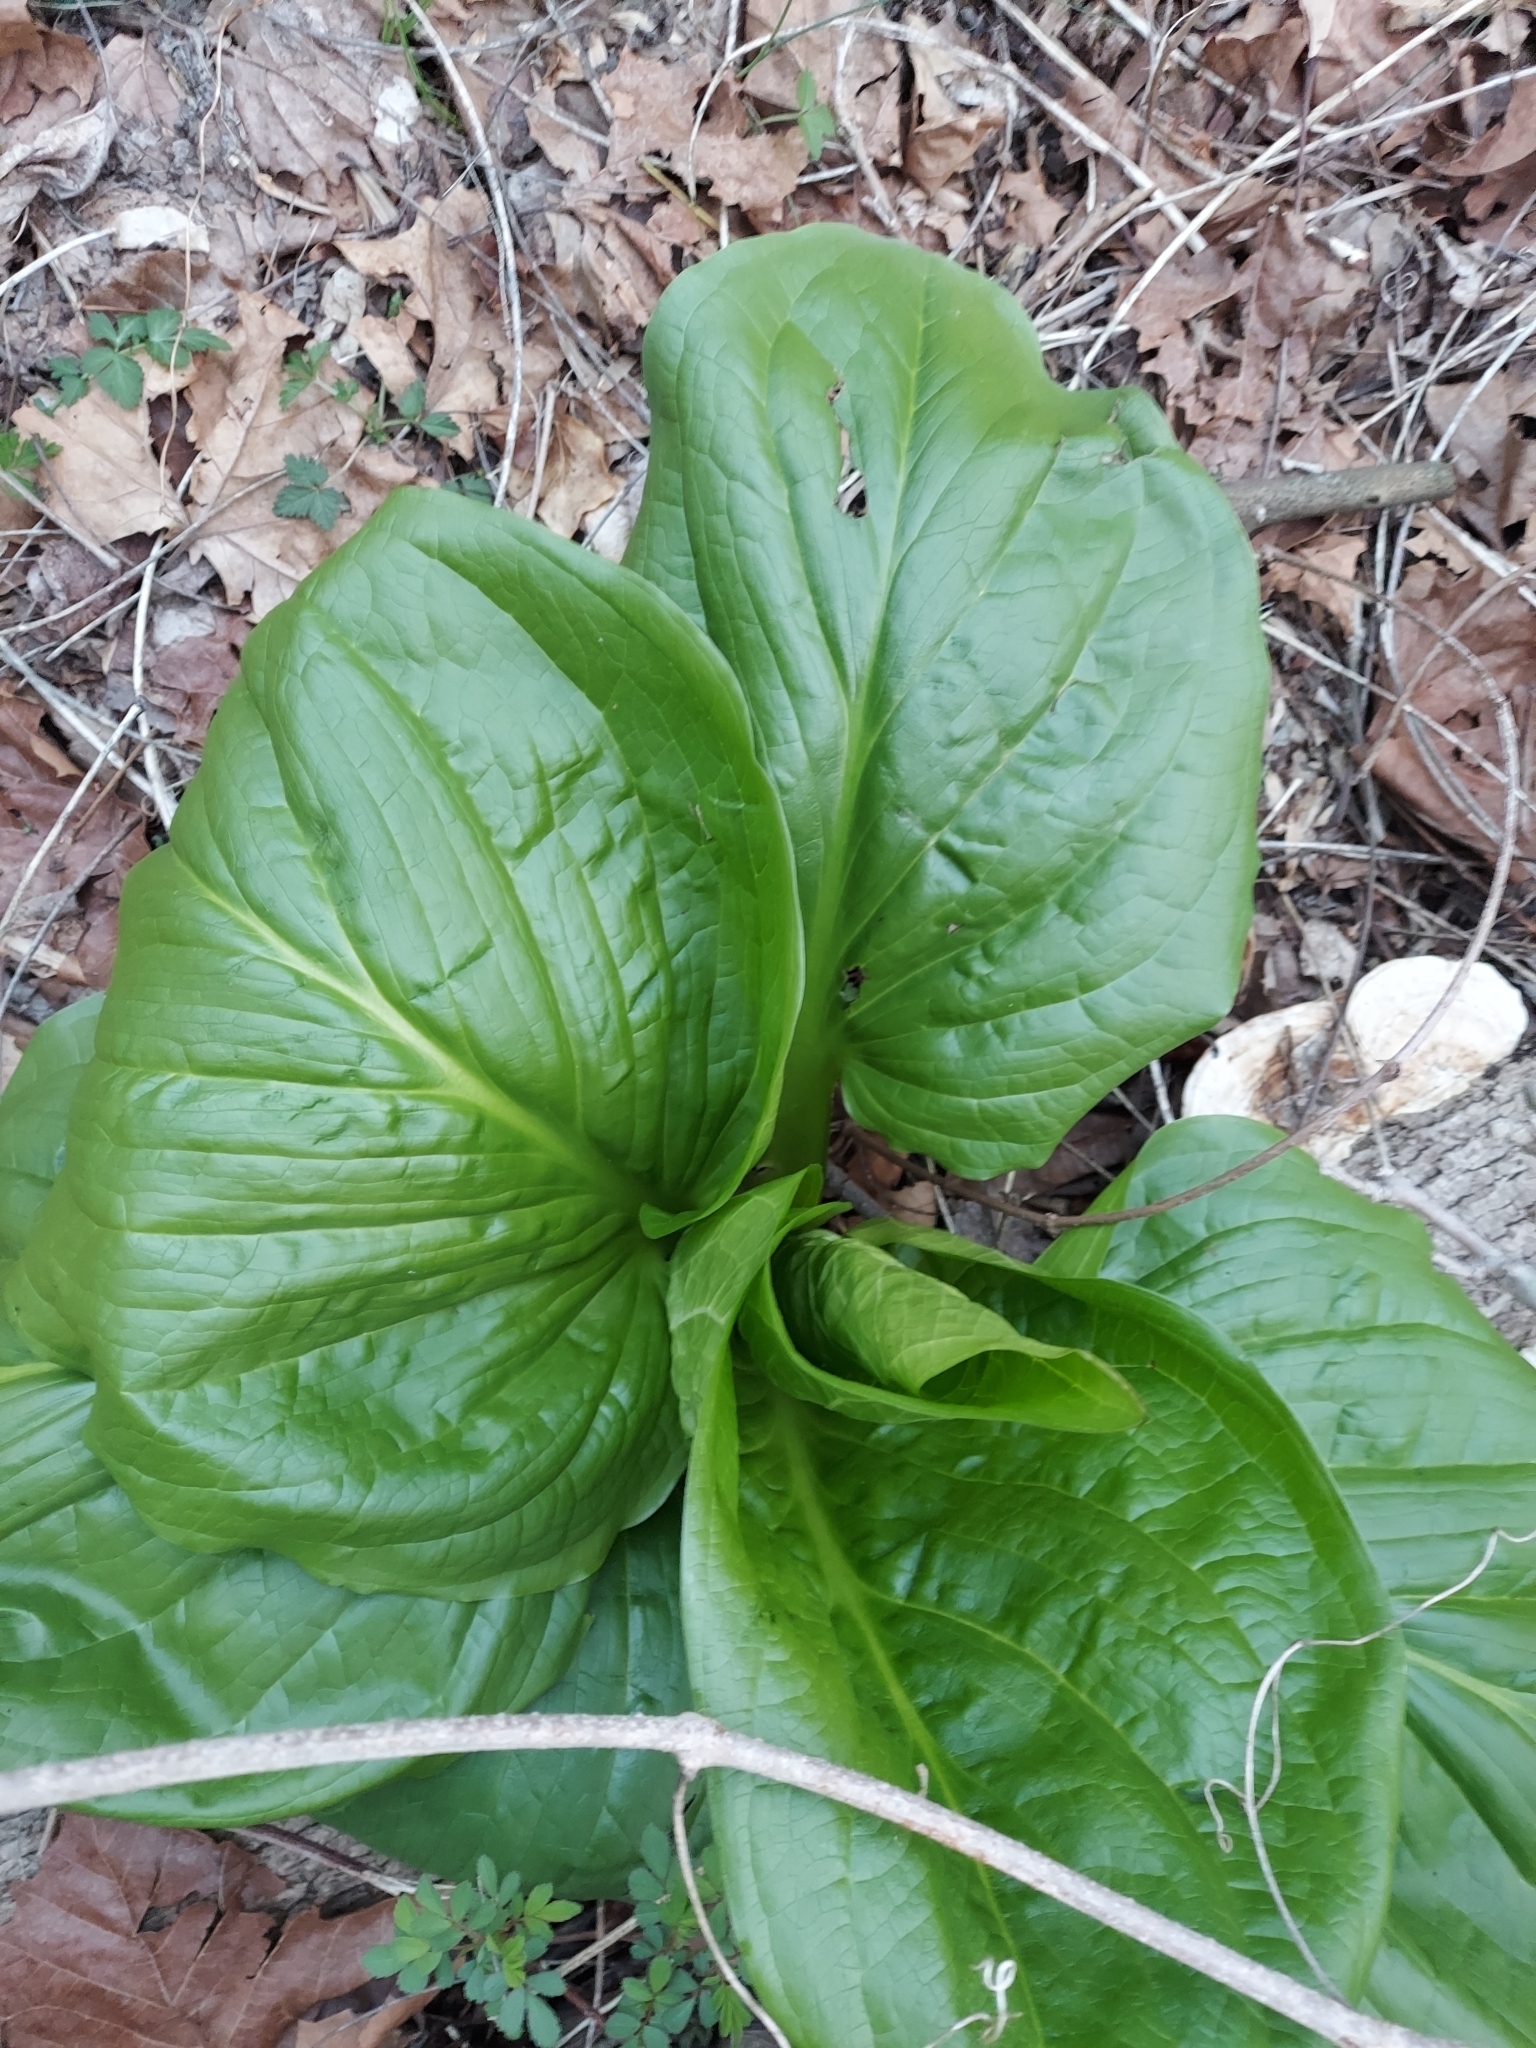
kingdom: Plantae
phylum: Tracheophyta
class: Liliopsida
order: Alismatales
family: Araceae
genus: Symplocarpus
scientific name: Symplocarpus foetidus
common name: Eastern skunk cabbage
